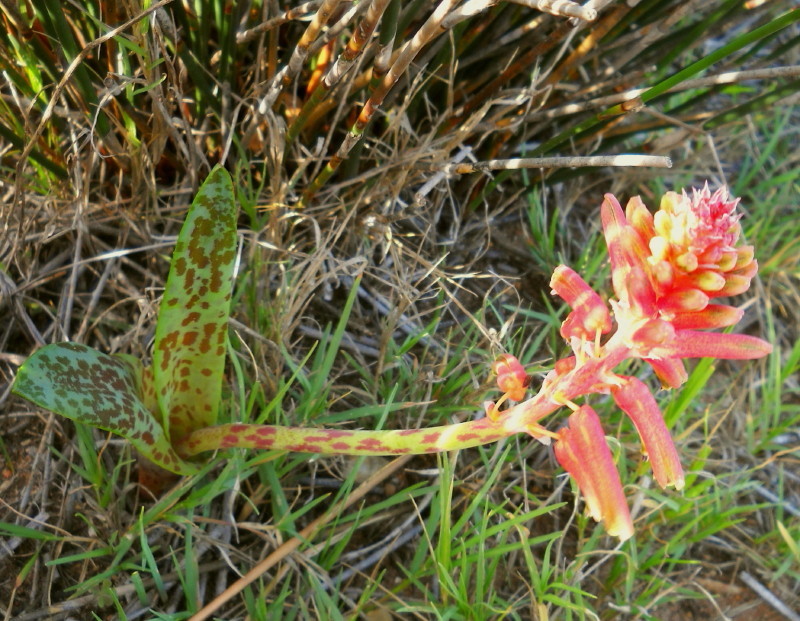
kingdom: Plantae
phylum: Tracheophyta
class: Liliopsida
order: Asparagales
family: Asparagaceae
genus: Lachenalia
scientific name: Lachenalia bulbifera
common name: Red lachenalia
